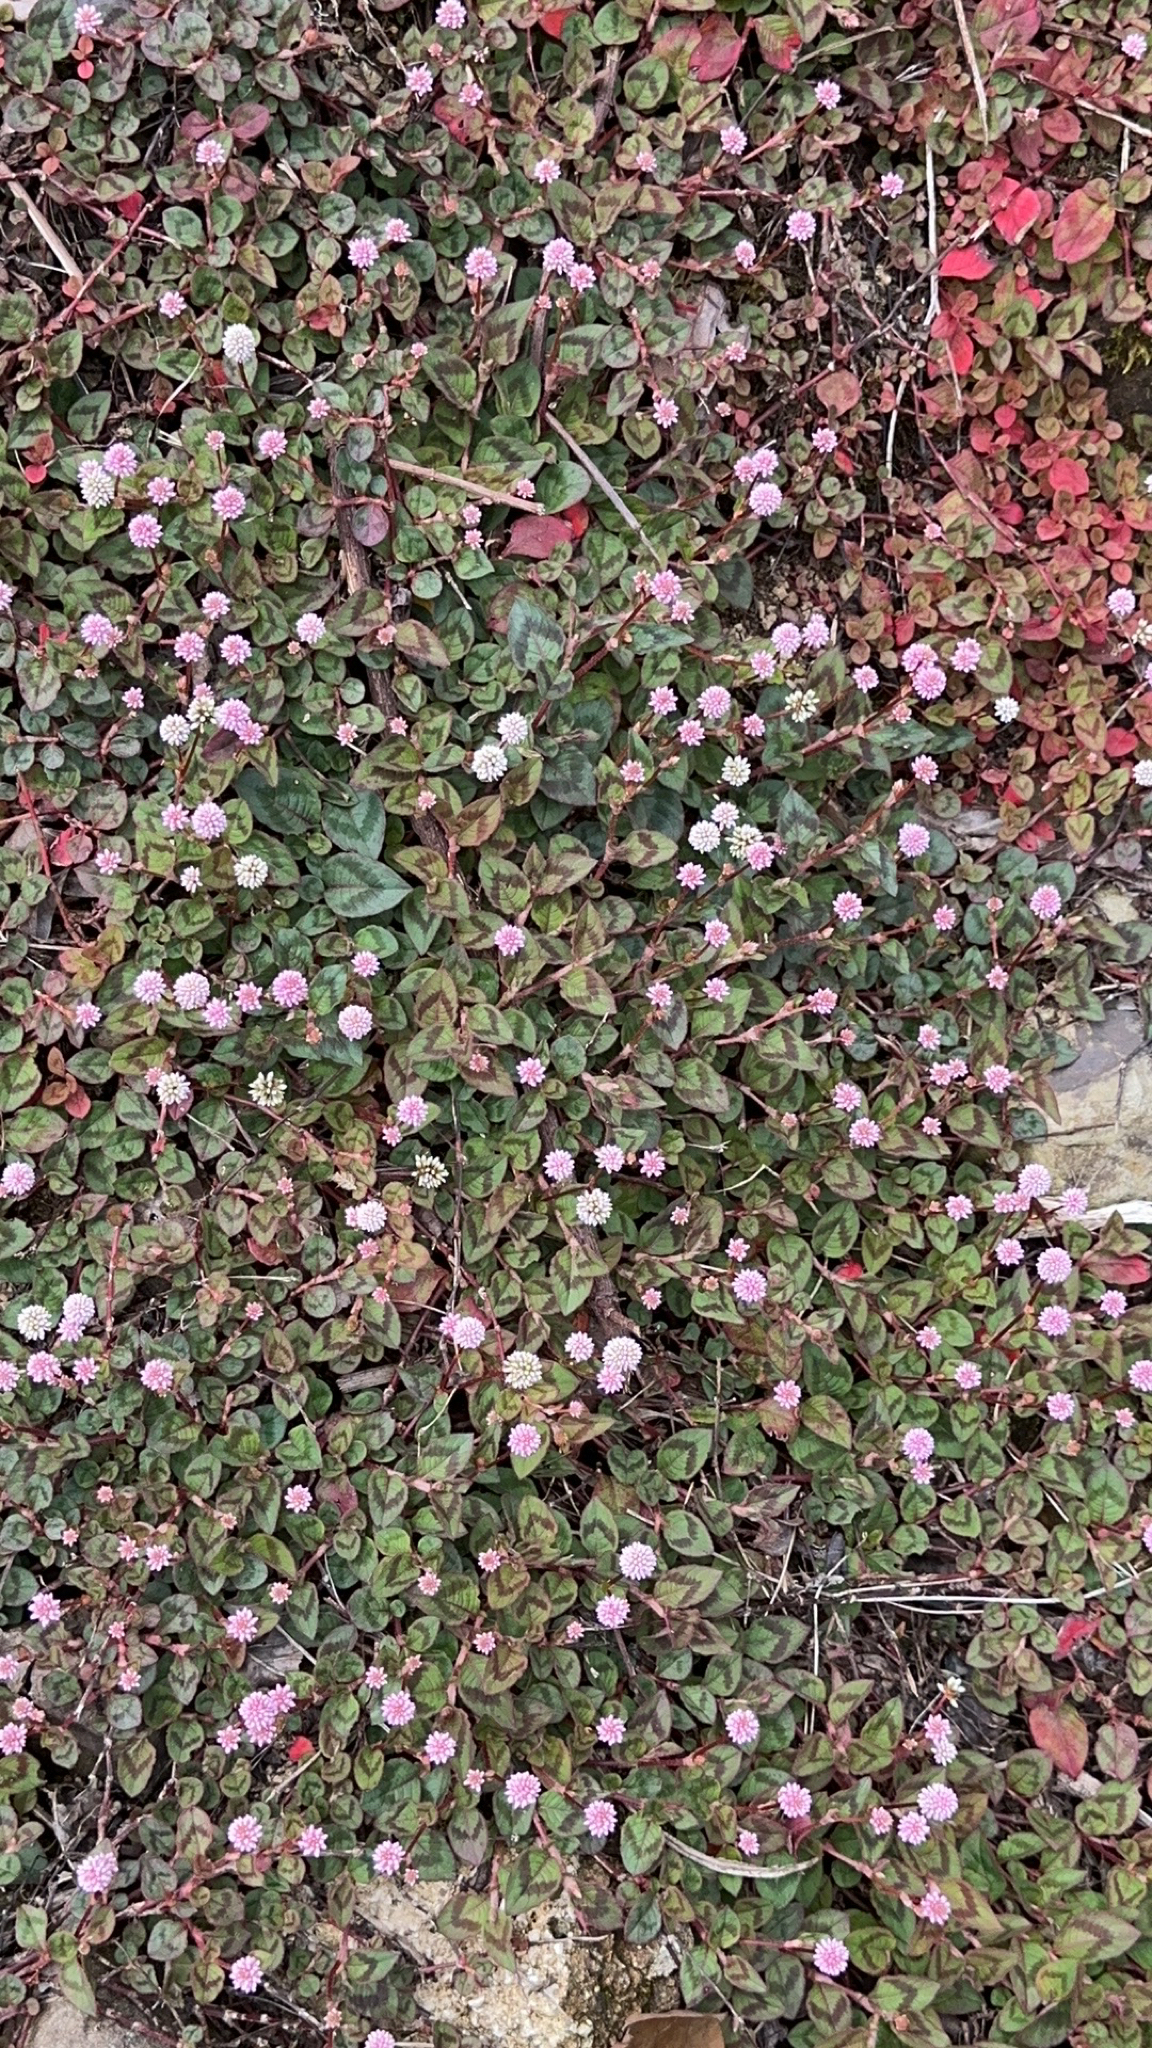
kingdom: Plantae
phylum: Tracheophyta
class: Magnoliopsida
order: Caryophyllales
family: Polygonaceae
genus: Persicaria
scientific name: Persicaria capitata
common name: Pinkhead smartweed
